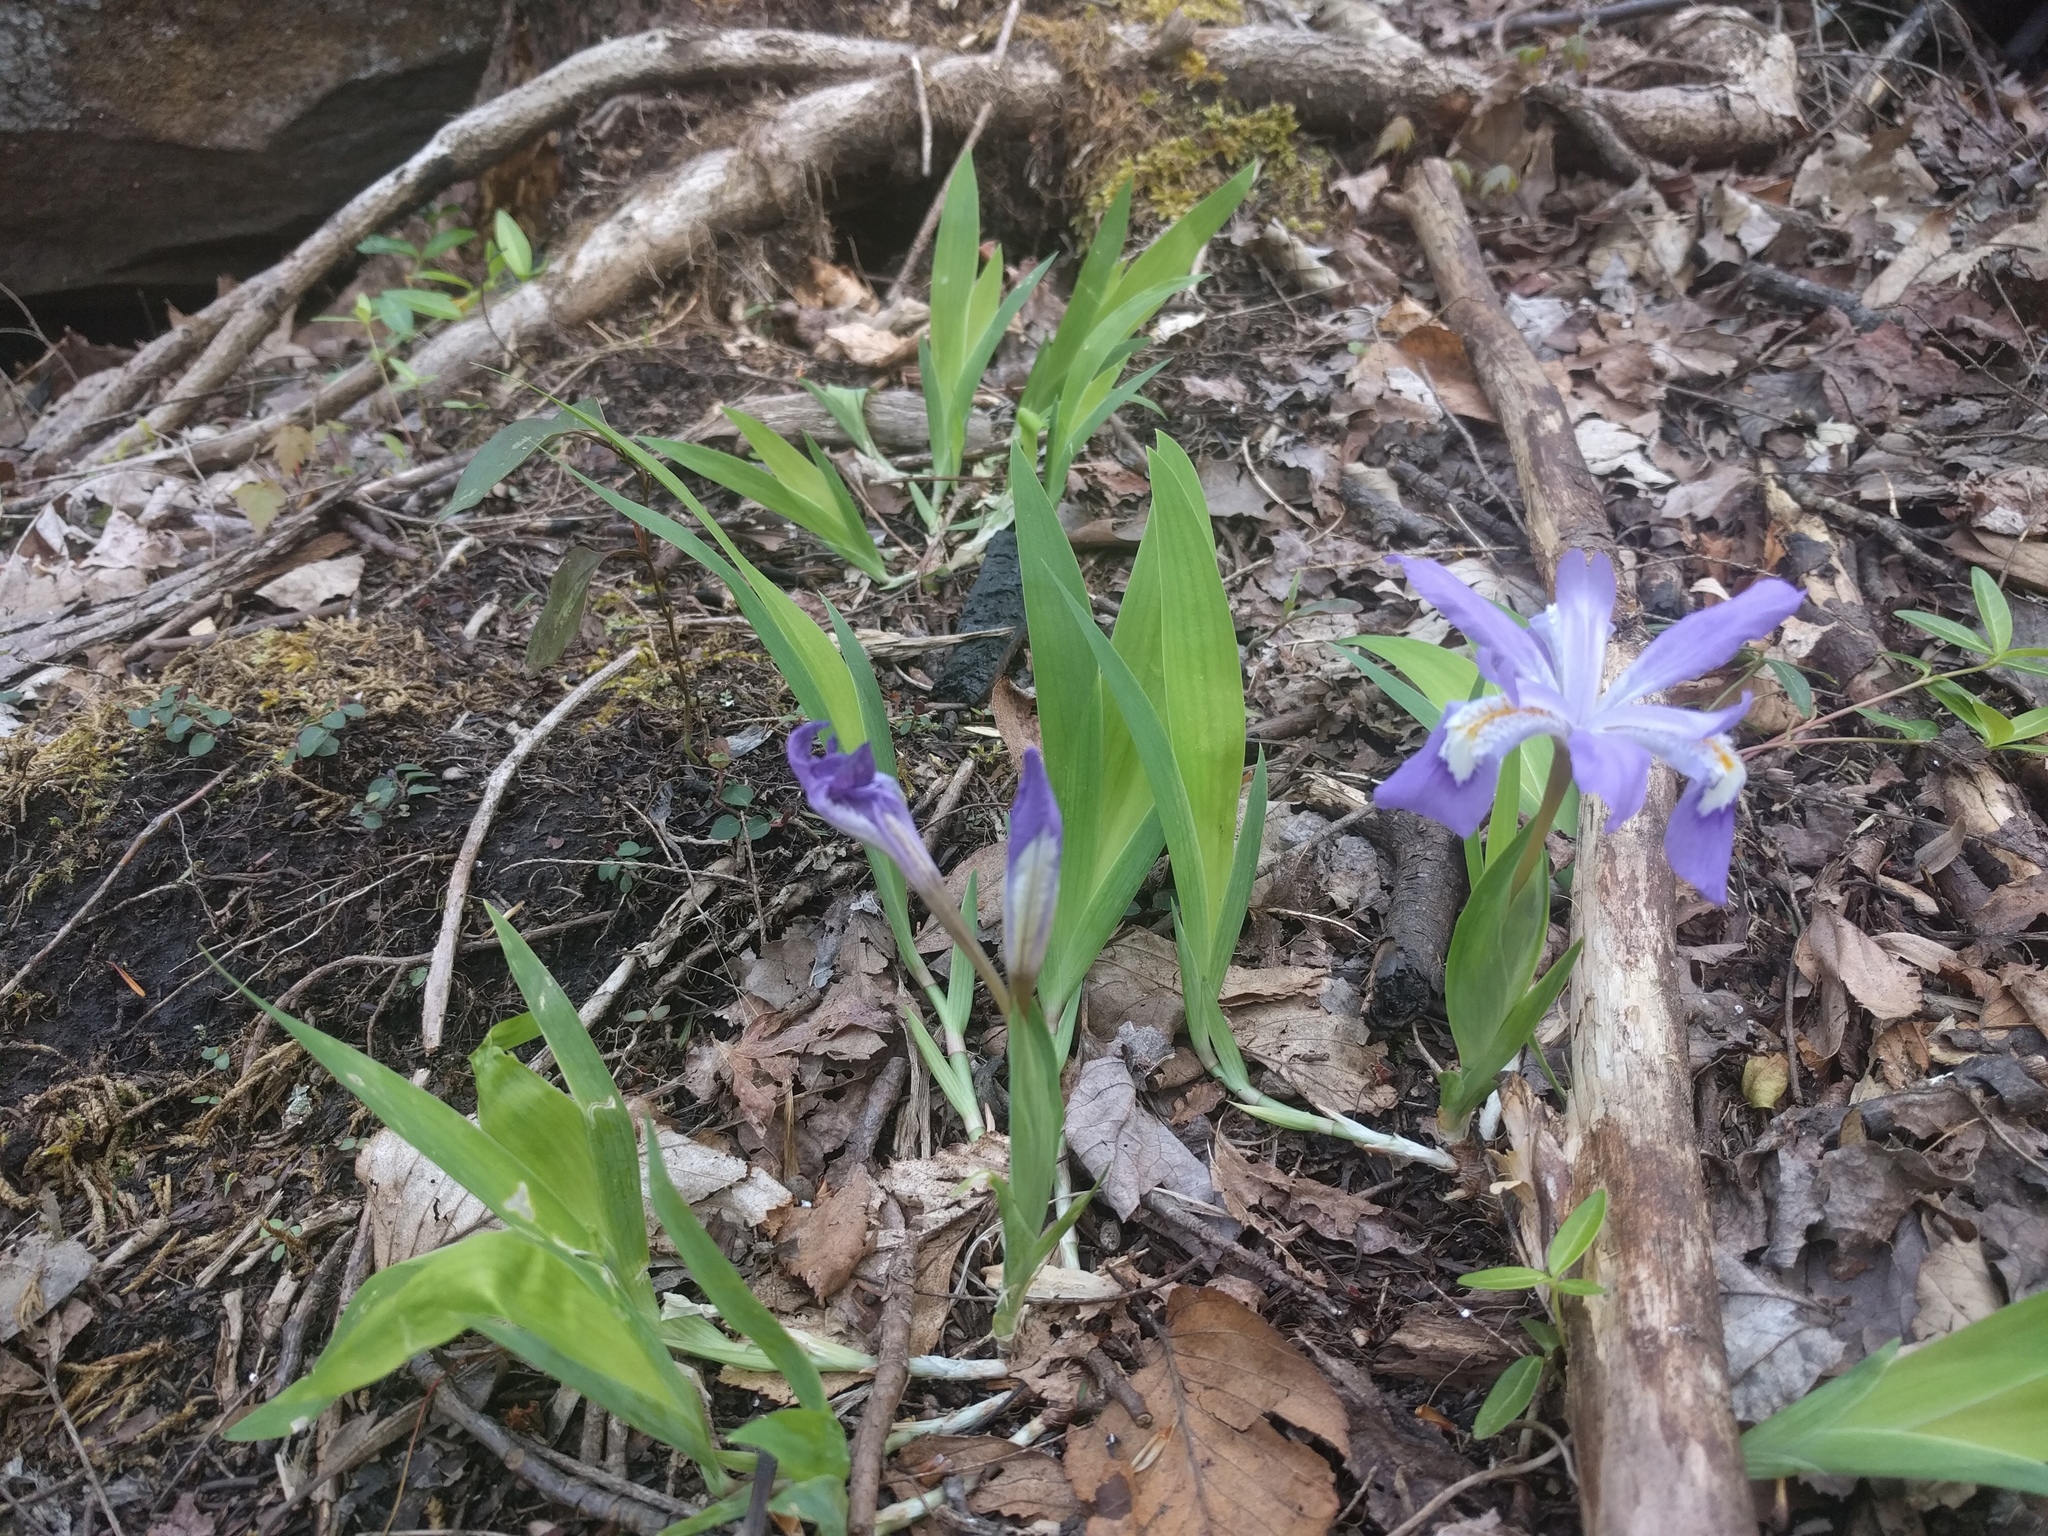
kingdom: Plantae
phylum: Tracheophyta
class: Liliopsida
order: Asparagales
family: Iridaceae
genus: Iris
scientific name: Iris cristata
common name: Crested iris
